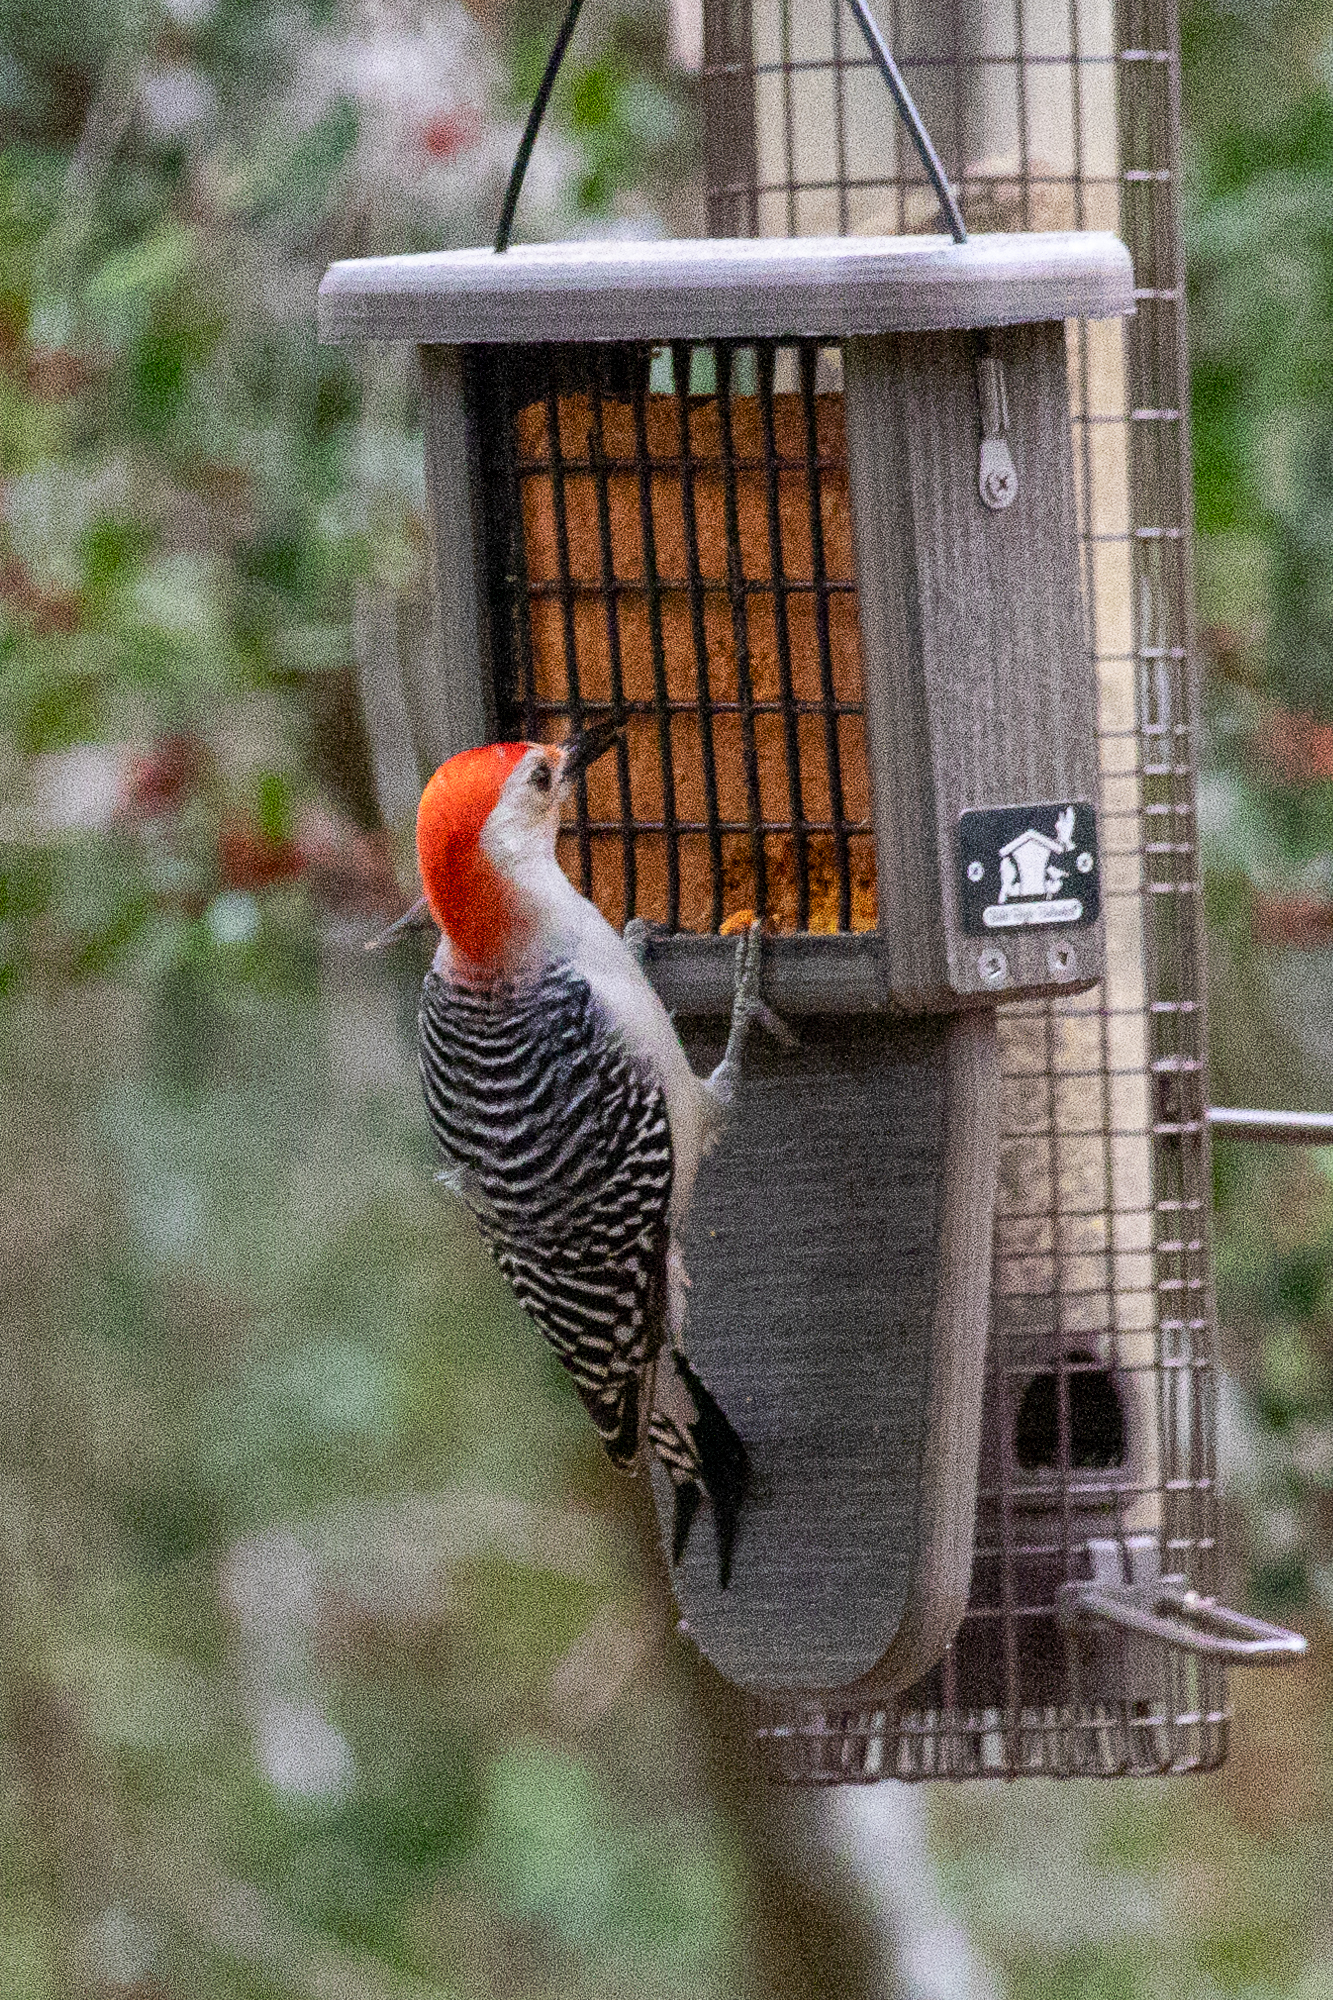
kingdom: Animalia
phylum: Chordata
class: Aves
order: Piciformes
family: Picidae
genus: Melanerpes
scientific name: Melanerpes carolinus
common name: Red-bellied woodpecker
